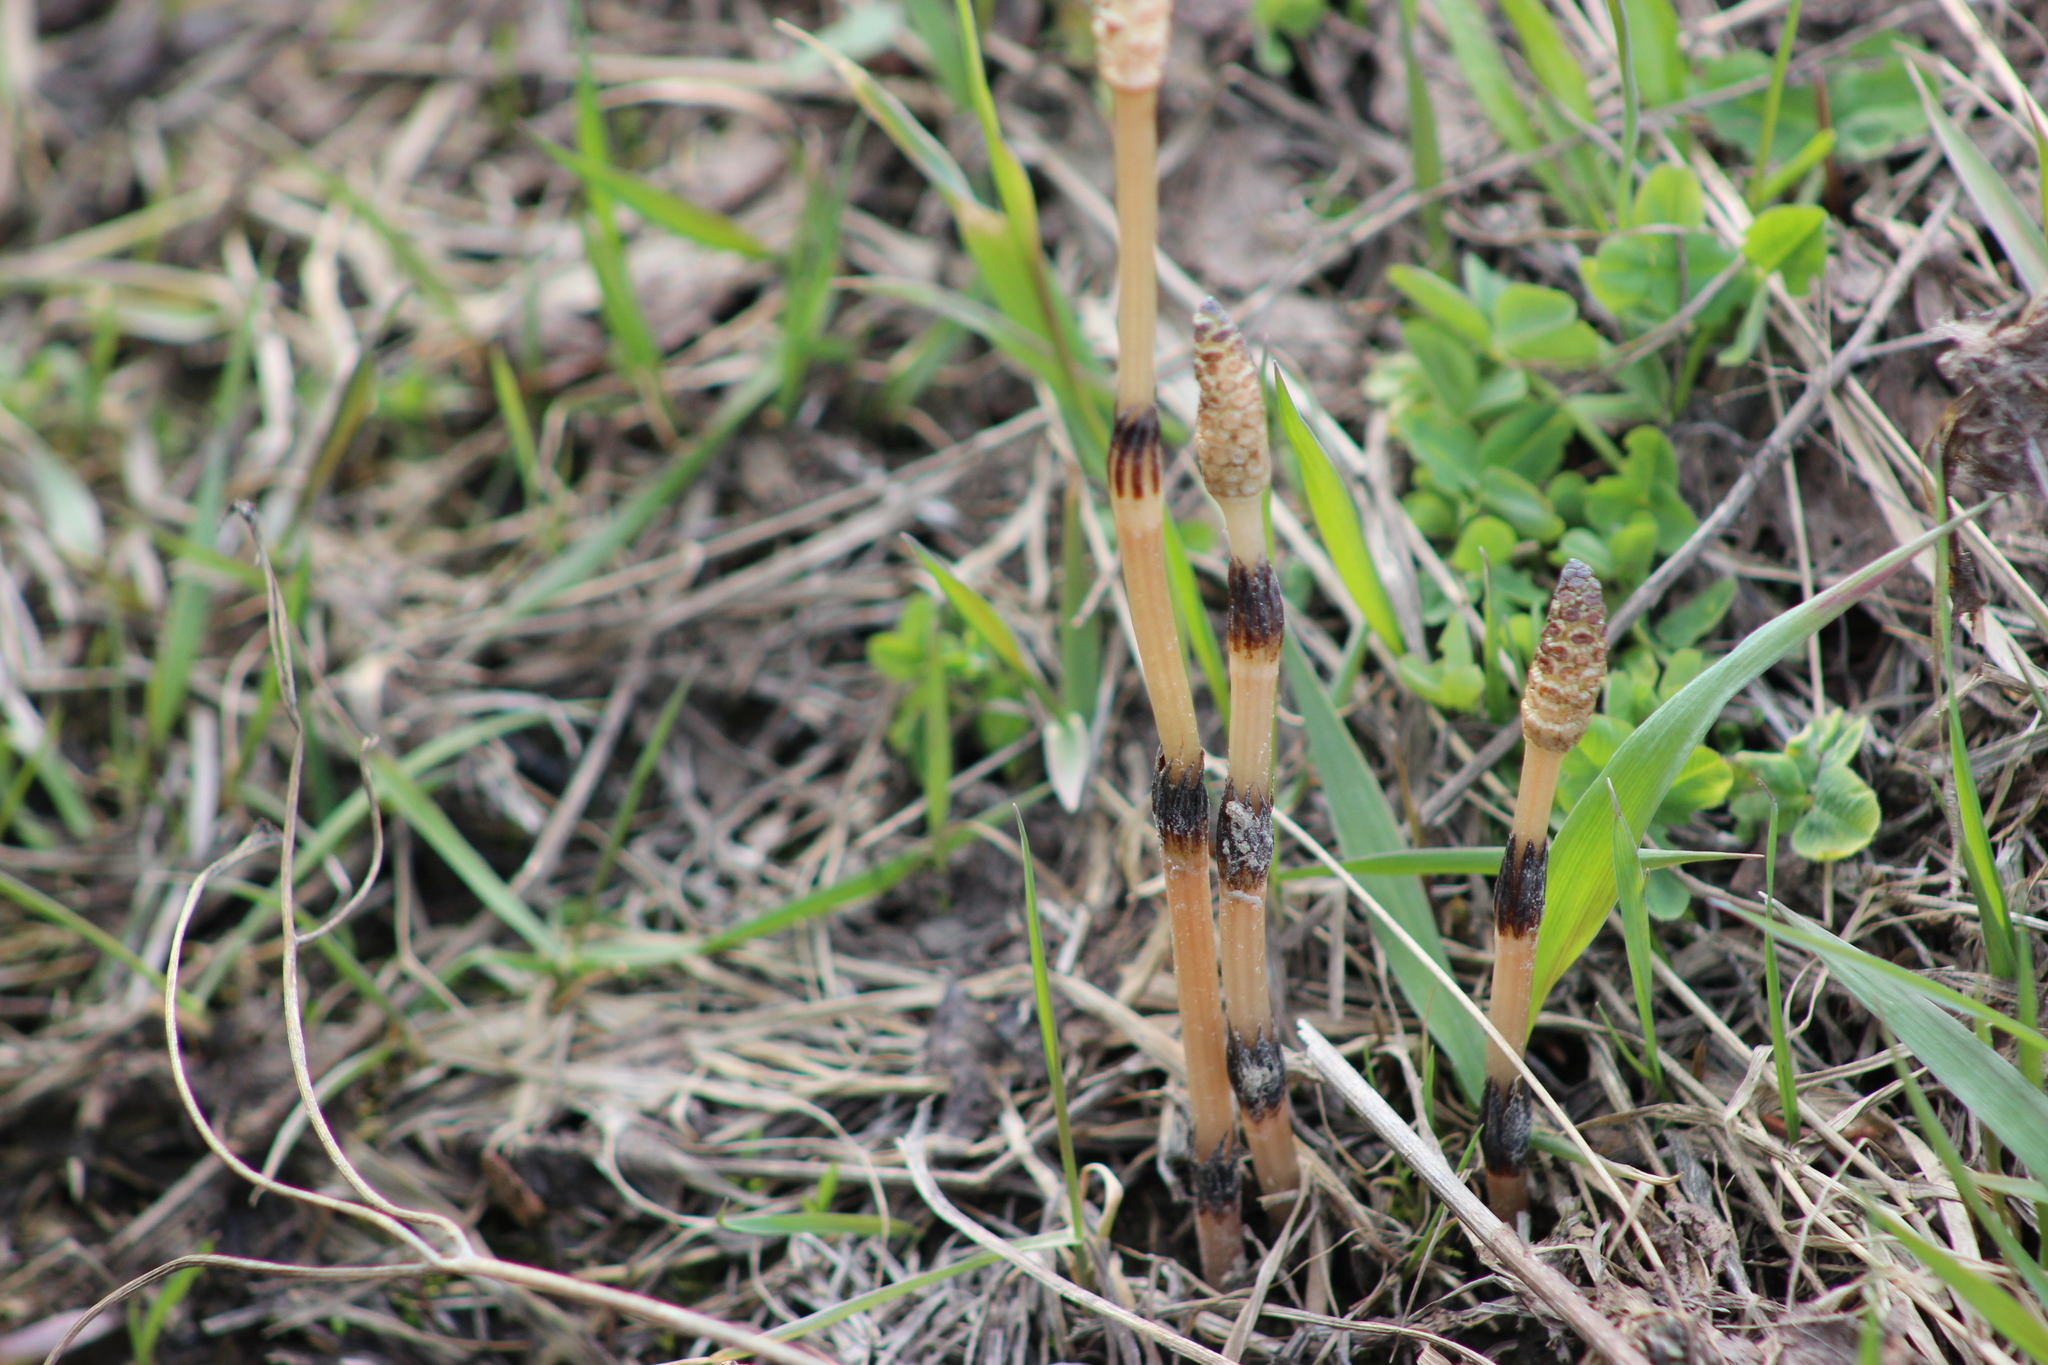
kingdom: Plantae
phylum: Tracheophyta
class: Polypodiopsida
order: Equisetales
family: Equisetaceae
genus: Equisetum
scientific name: Equisetum arvense
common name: Field horsetail
